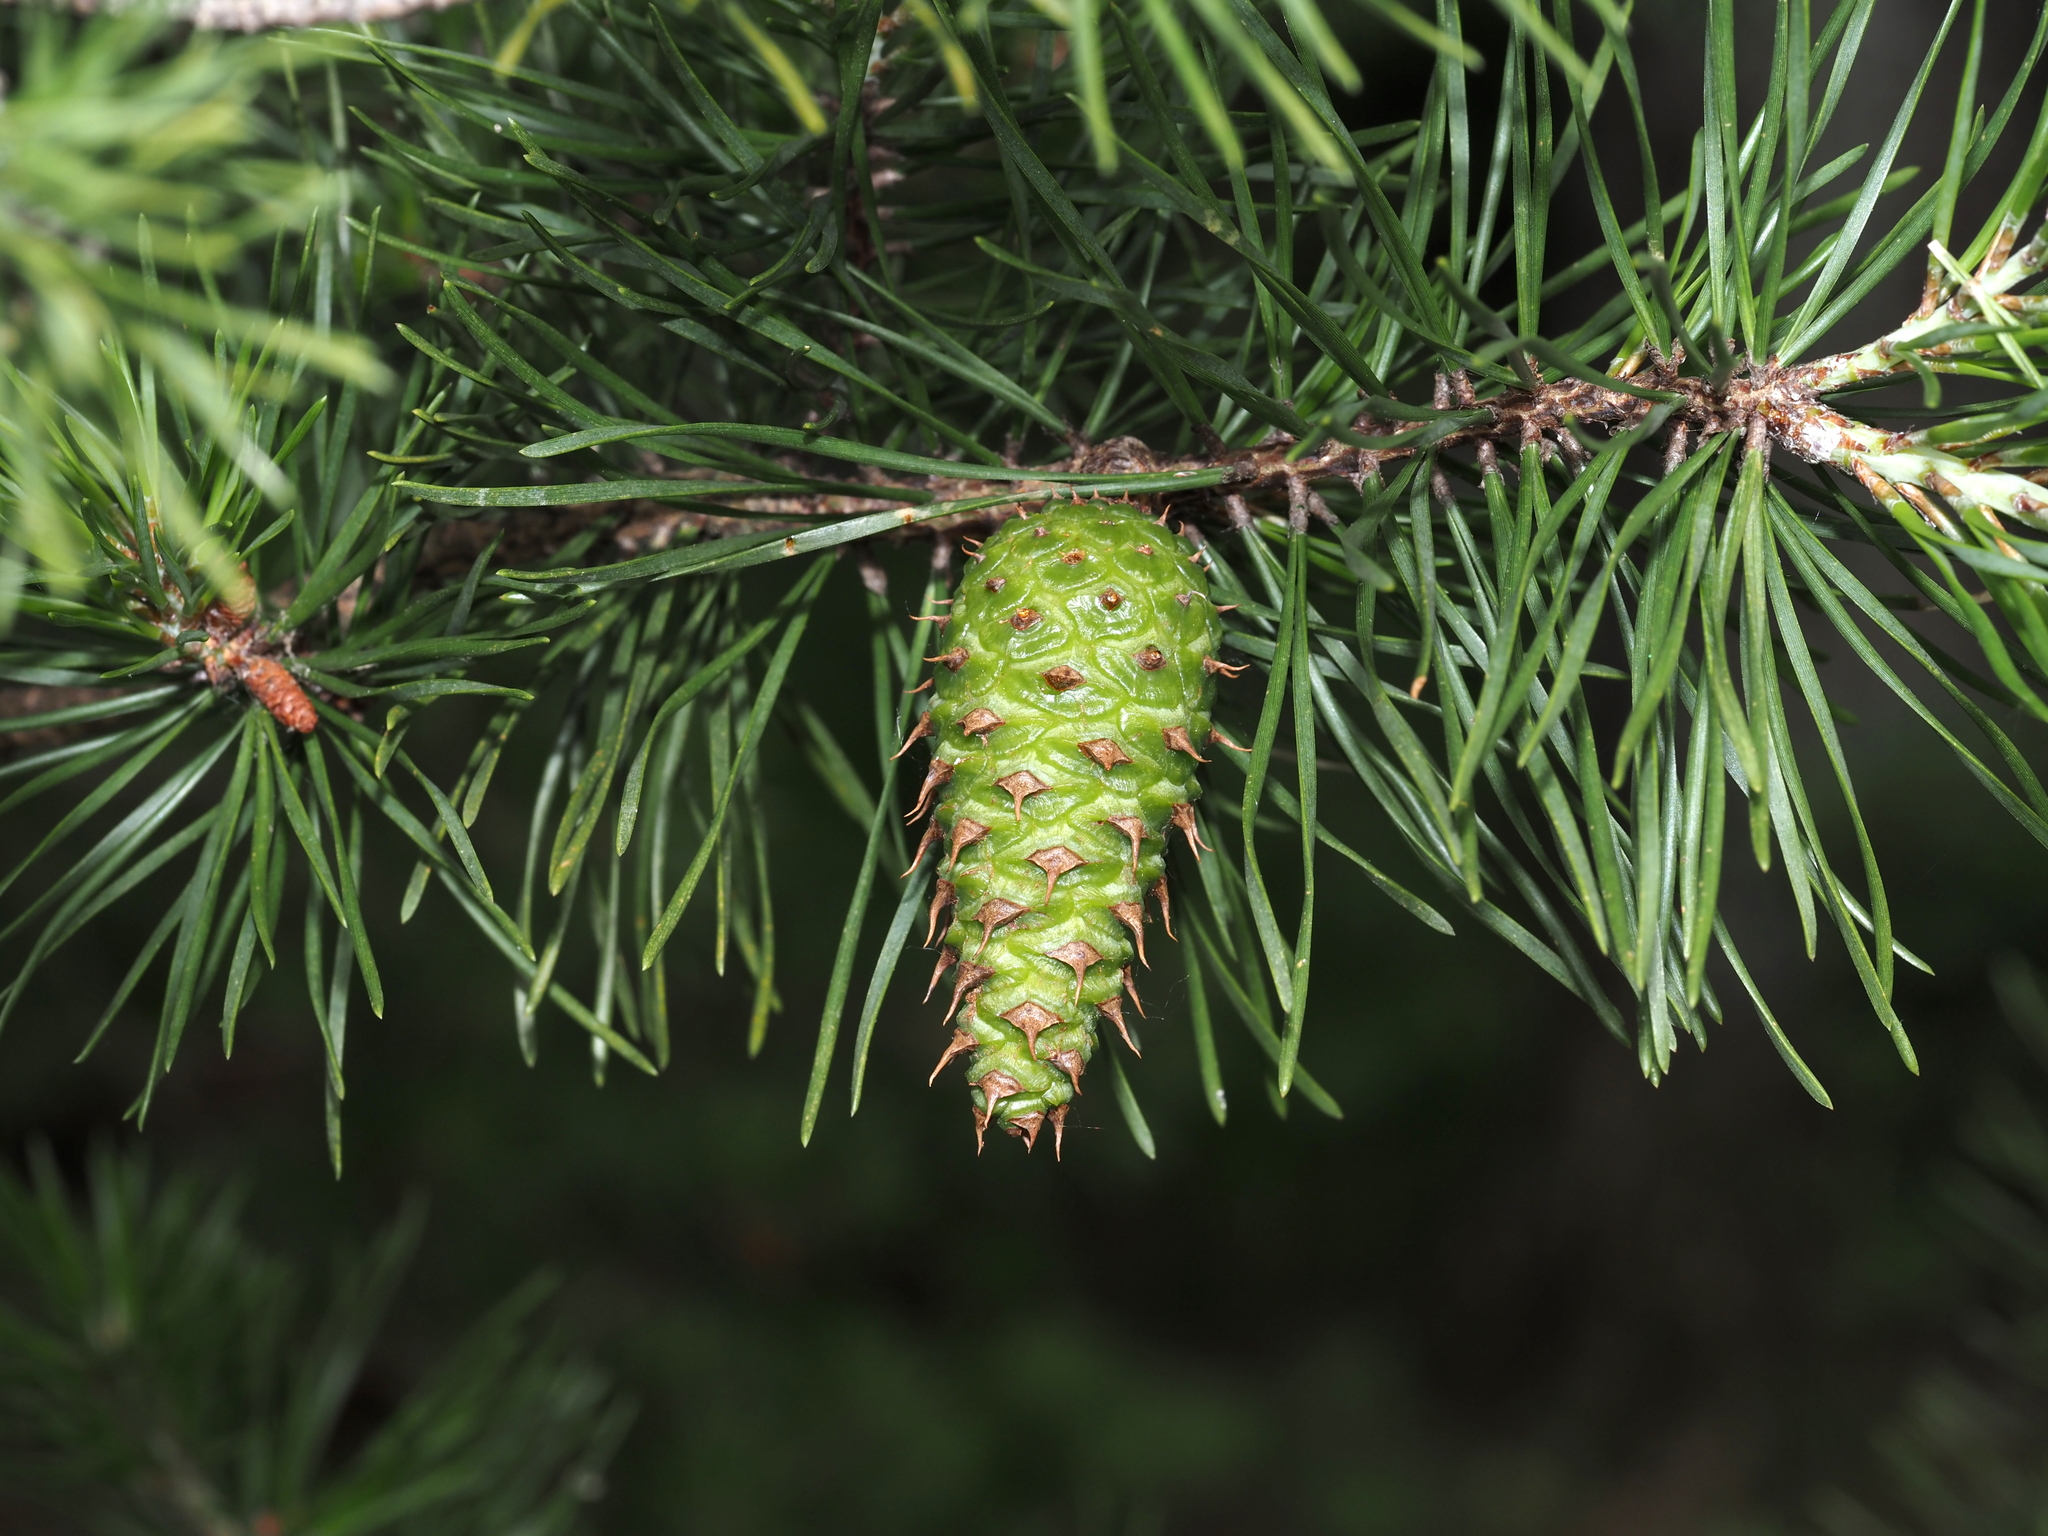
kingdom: Plantae
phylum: Tracheophyta
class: Pinopsida
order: Pinales
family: Pinaceae
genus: Pinus
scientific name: Pinus virginiana
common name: Scrub pine
